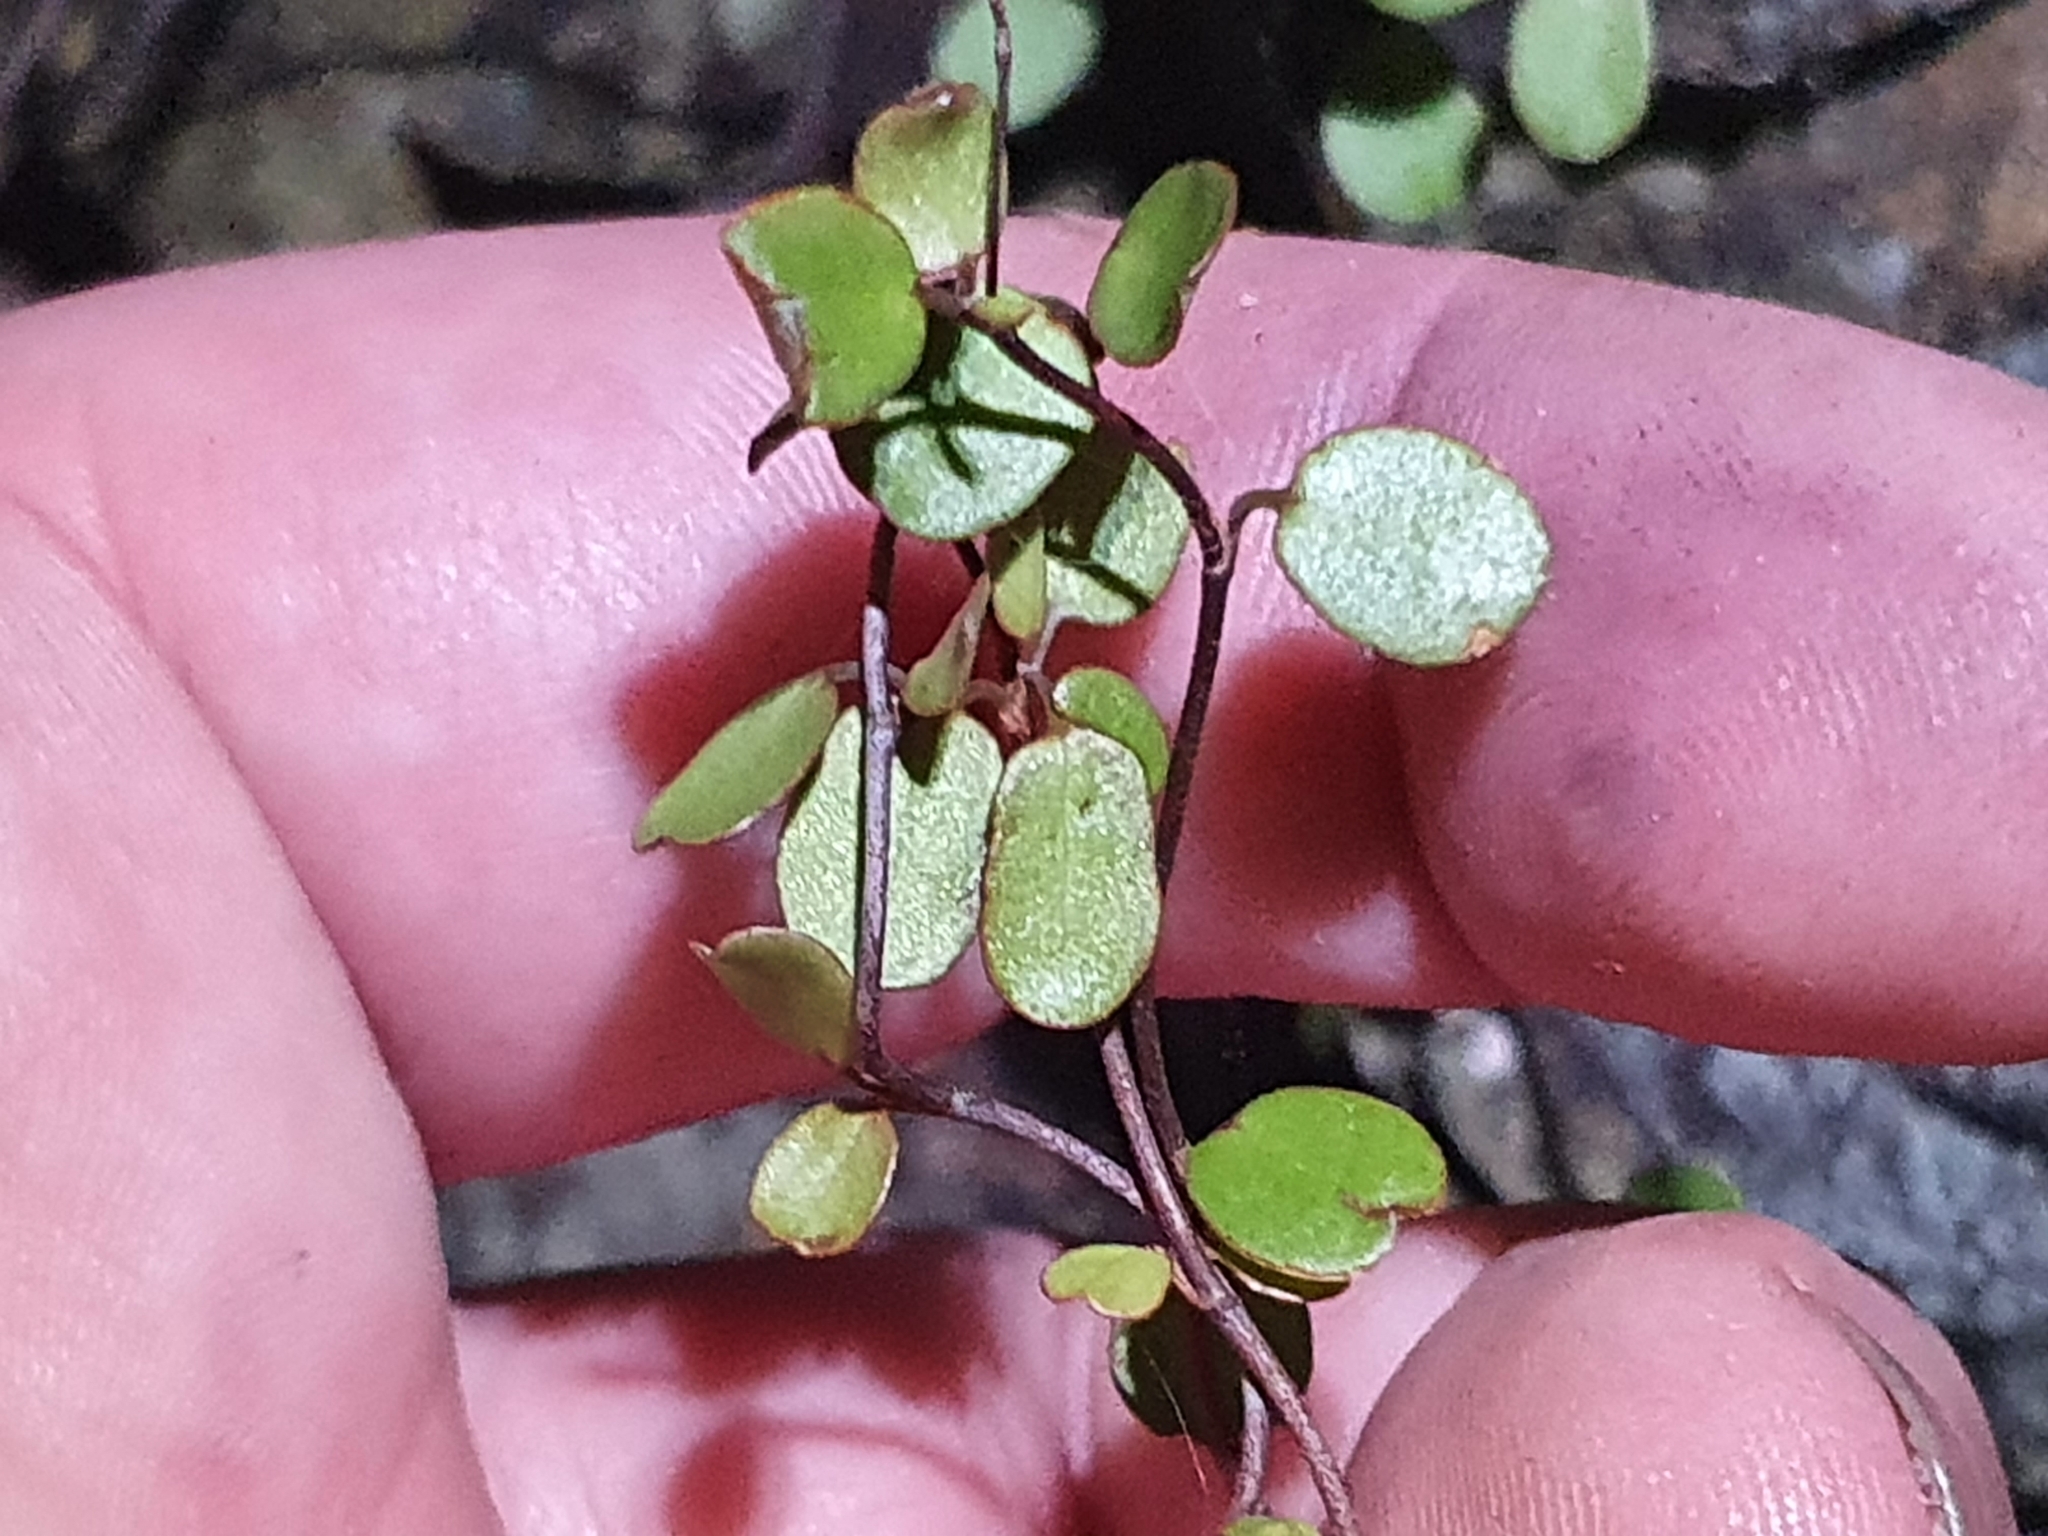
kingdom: Plantae
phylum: Tracheophyta
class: Magnoliopsida
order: Caryophyllales
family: Polygonaceae
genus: Muehlenbeckia
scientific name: Muehlenbeckia complexa
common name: Wireplant
